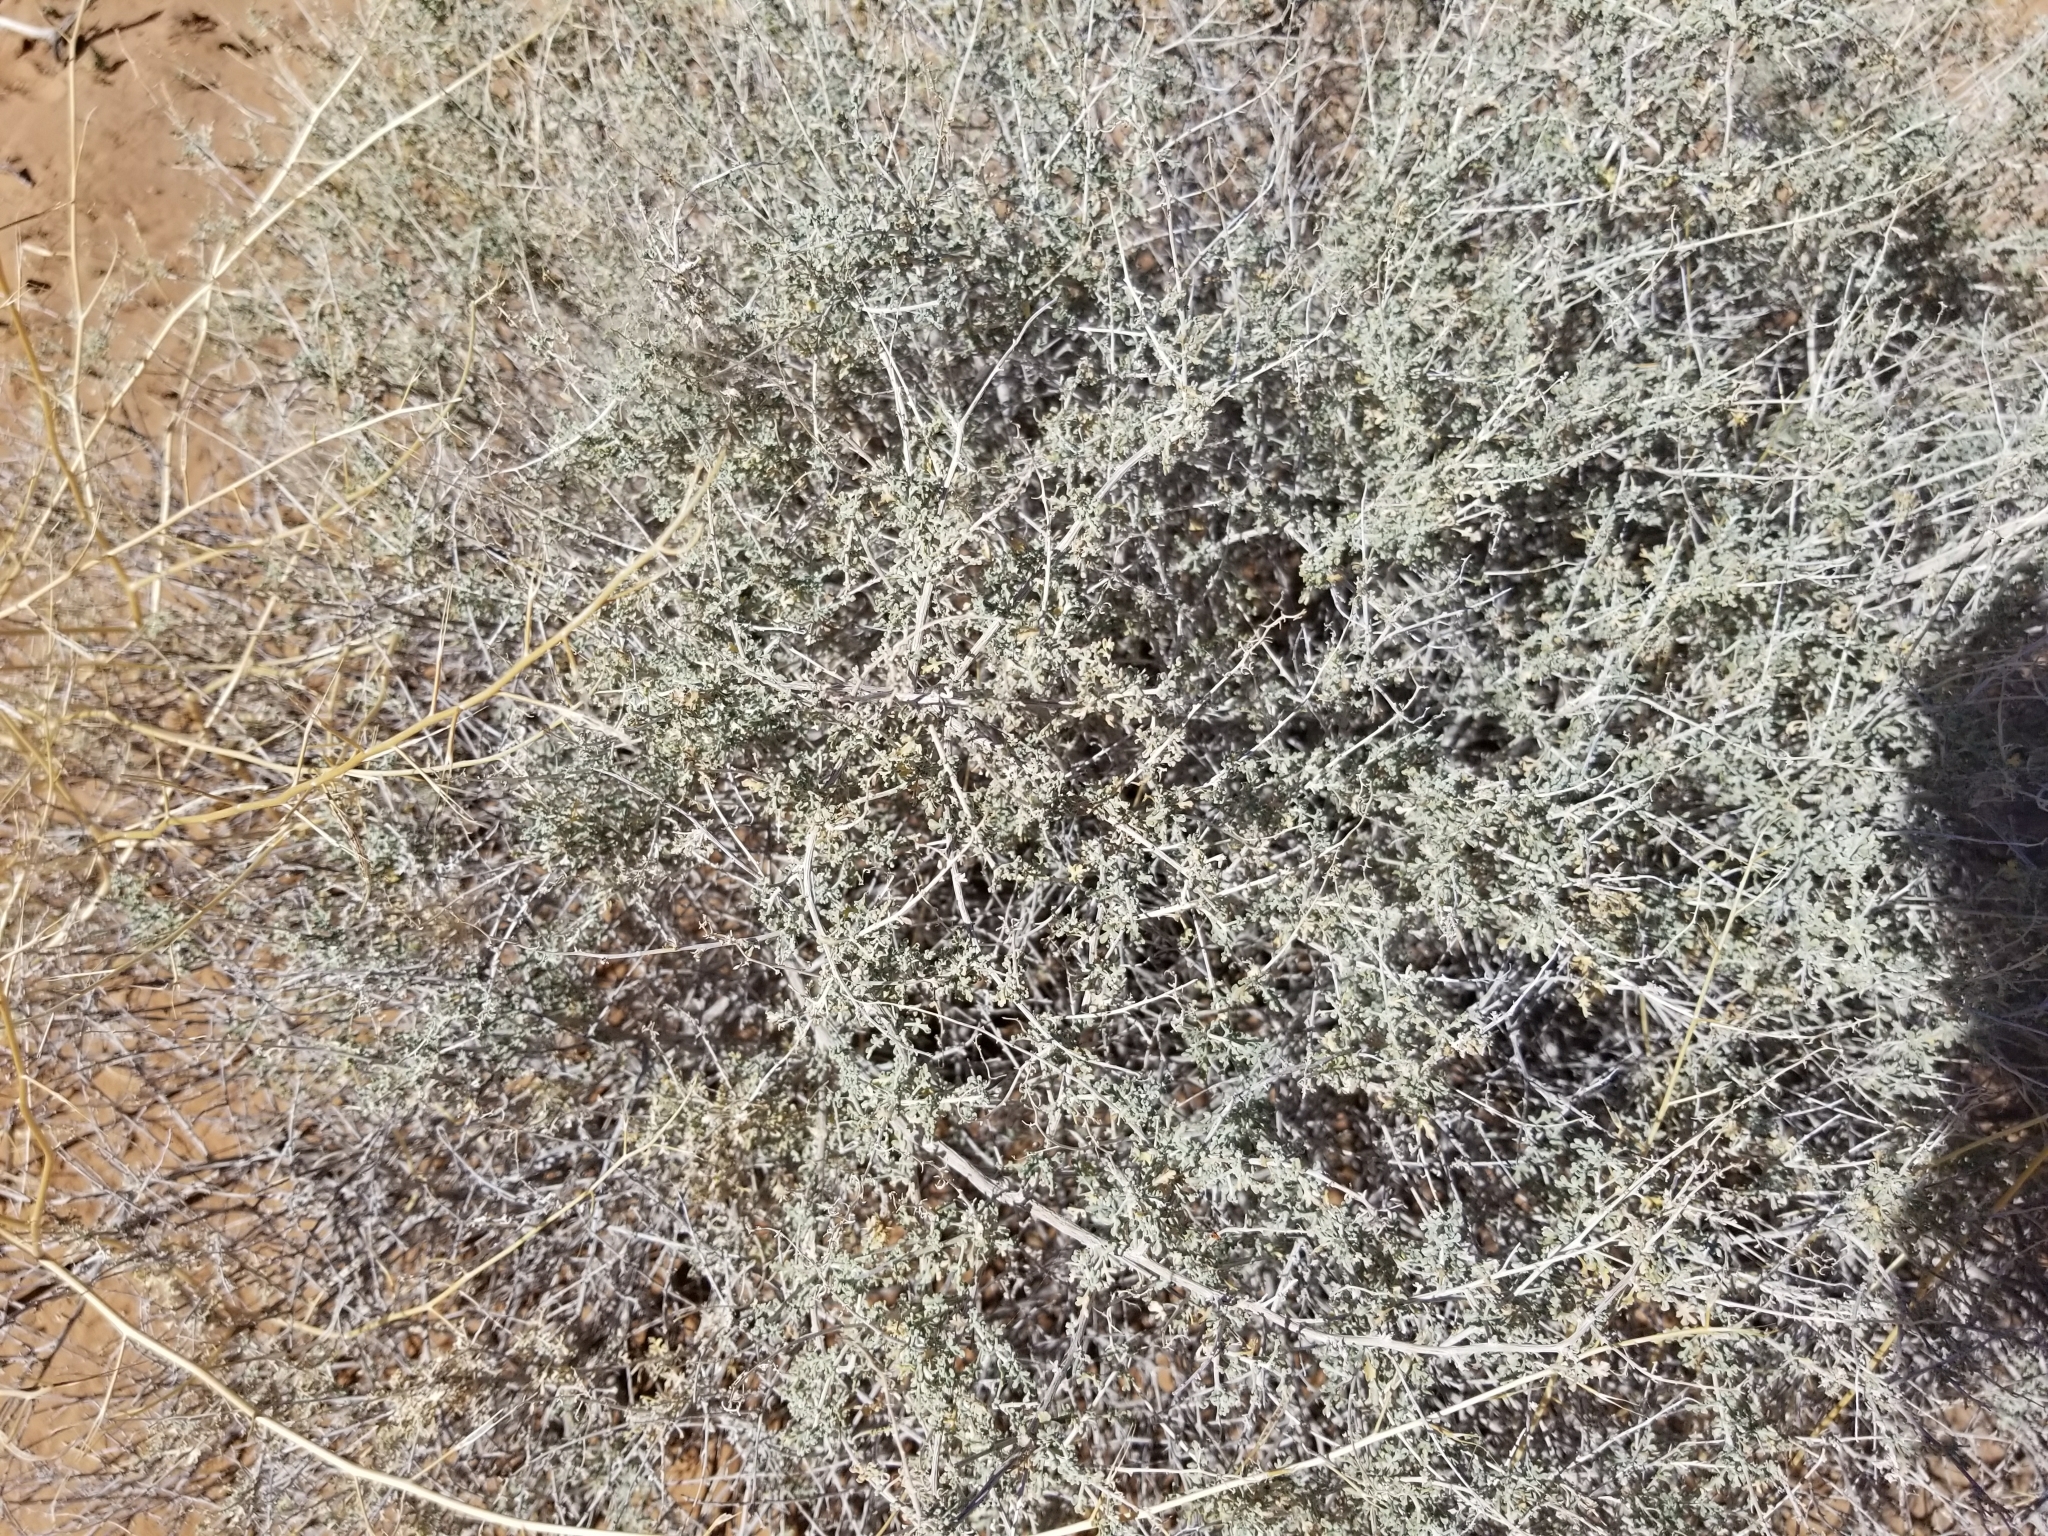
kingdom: Plantae
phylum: Tracheophyta
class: Magnoliopsida
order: Asterales
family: Asteraceae
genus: Ambrosia
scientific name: Ambrosia dumosa
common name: Bur-sage
